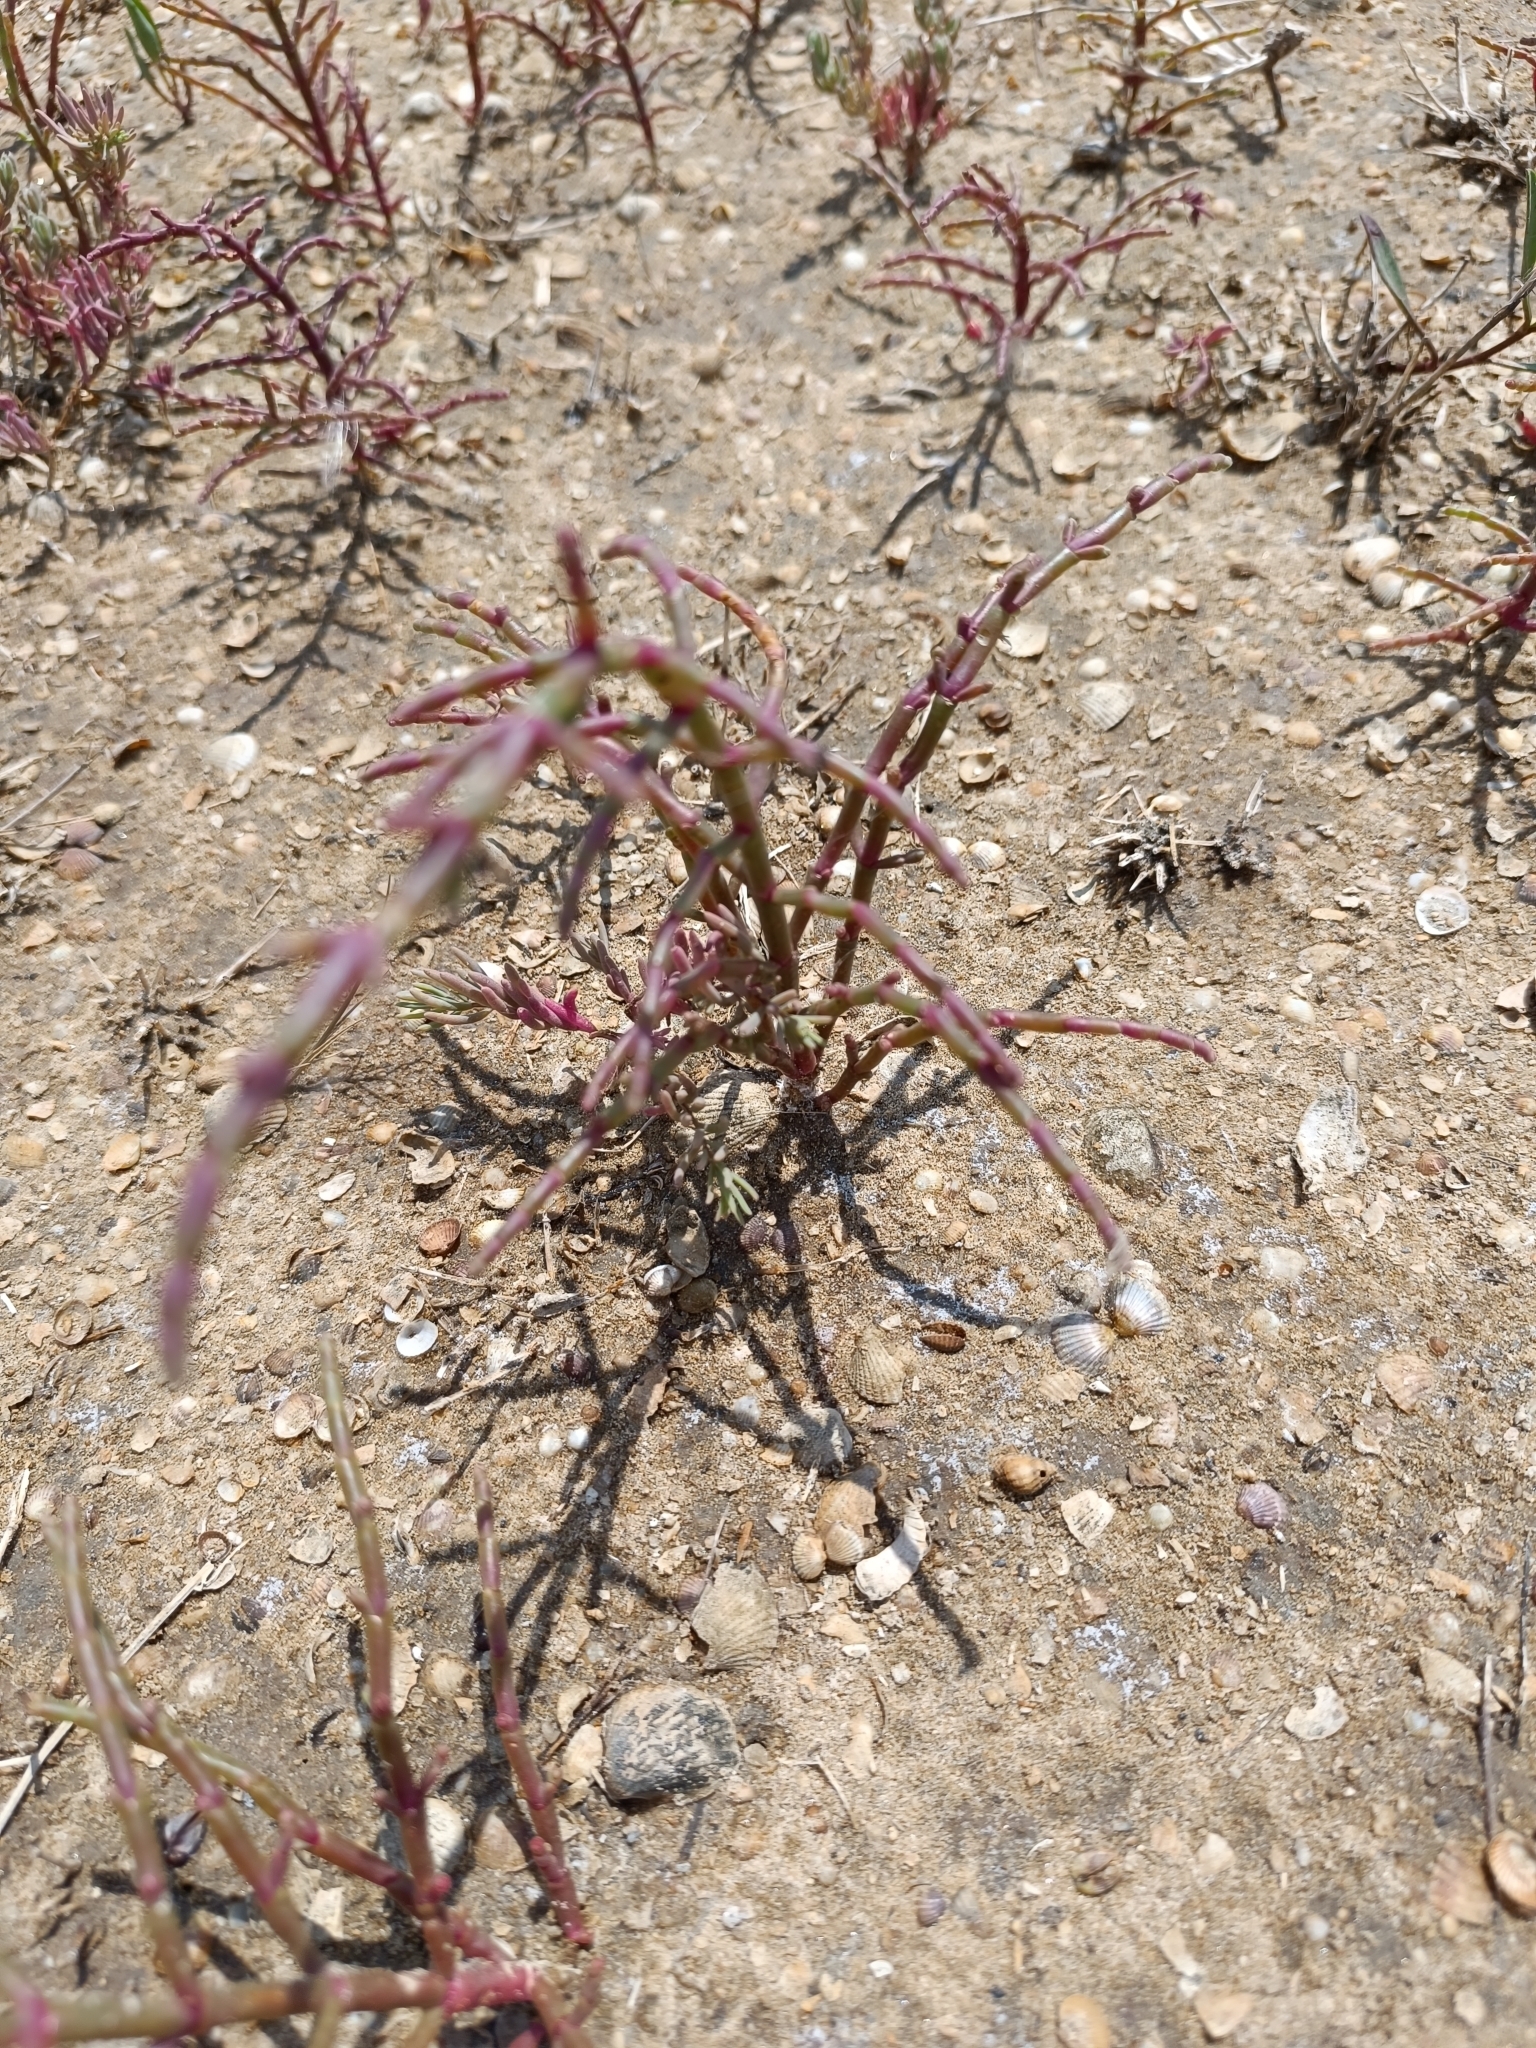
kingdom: Plantae
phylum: Tracheophyta
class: Magnoliopsida
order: Caryophyllales
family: Amaranthaceae
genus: Salicornia
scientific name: Salicornia perennans
